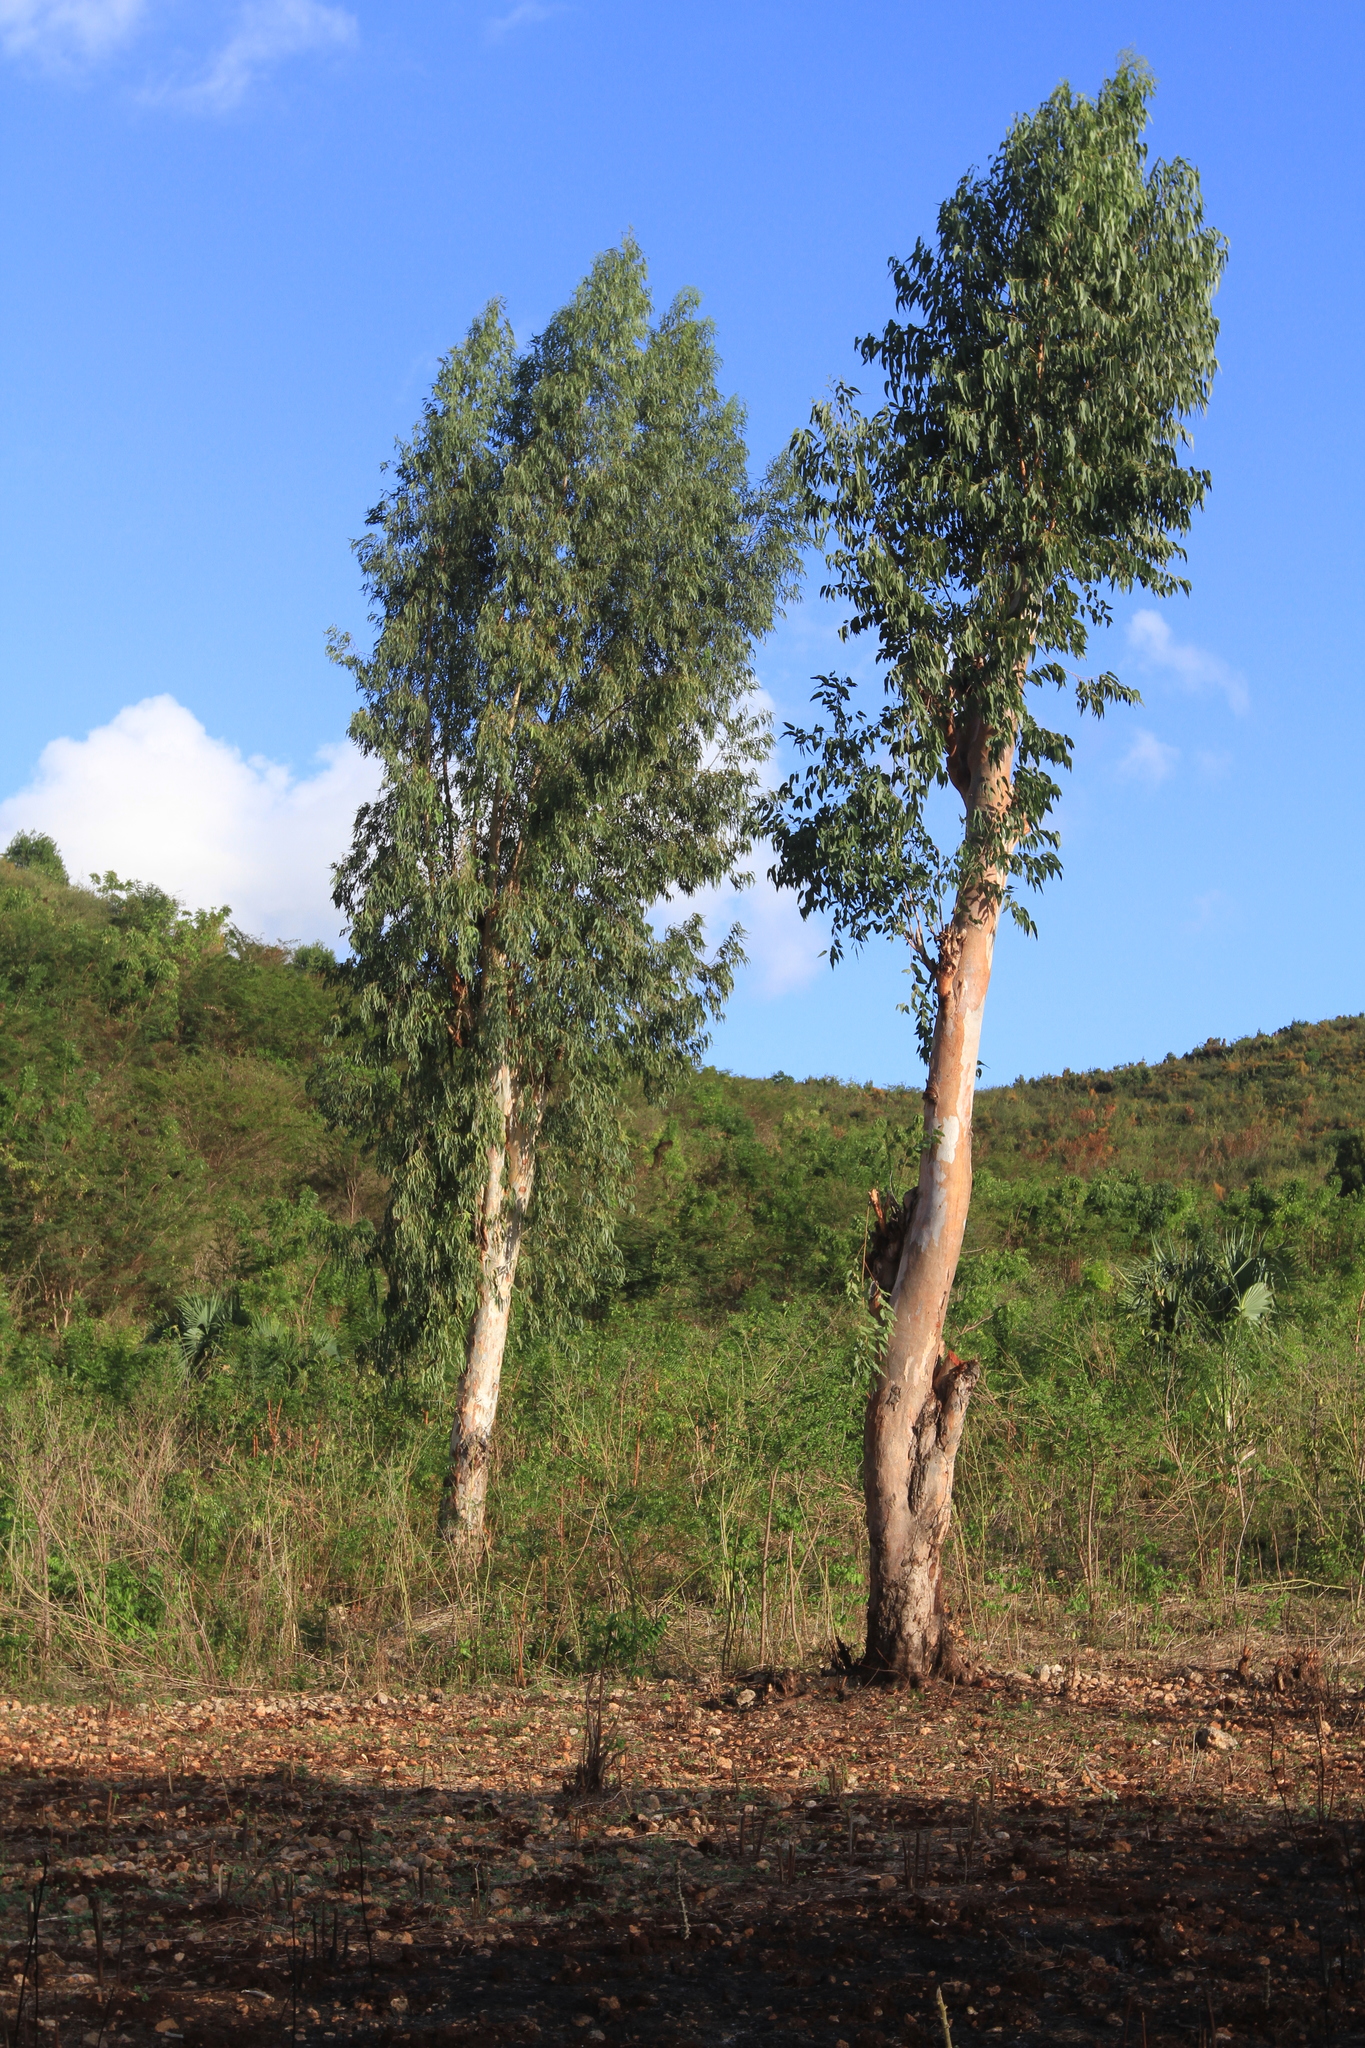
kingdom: Plantae
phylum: Tracheophyta
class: Magnoliopsida
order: Myrtales
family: Myrtaceae
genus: Eucalyptus
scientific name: Eucalyptus globulus
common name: Southern blue-gum
